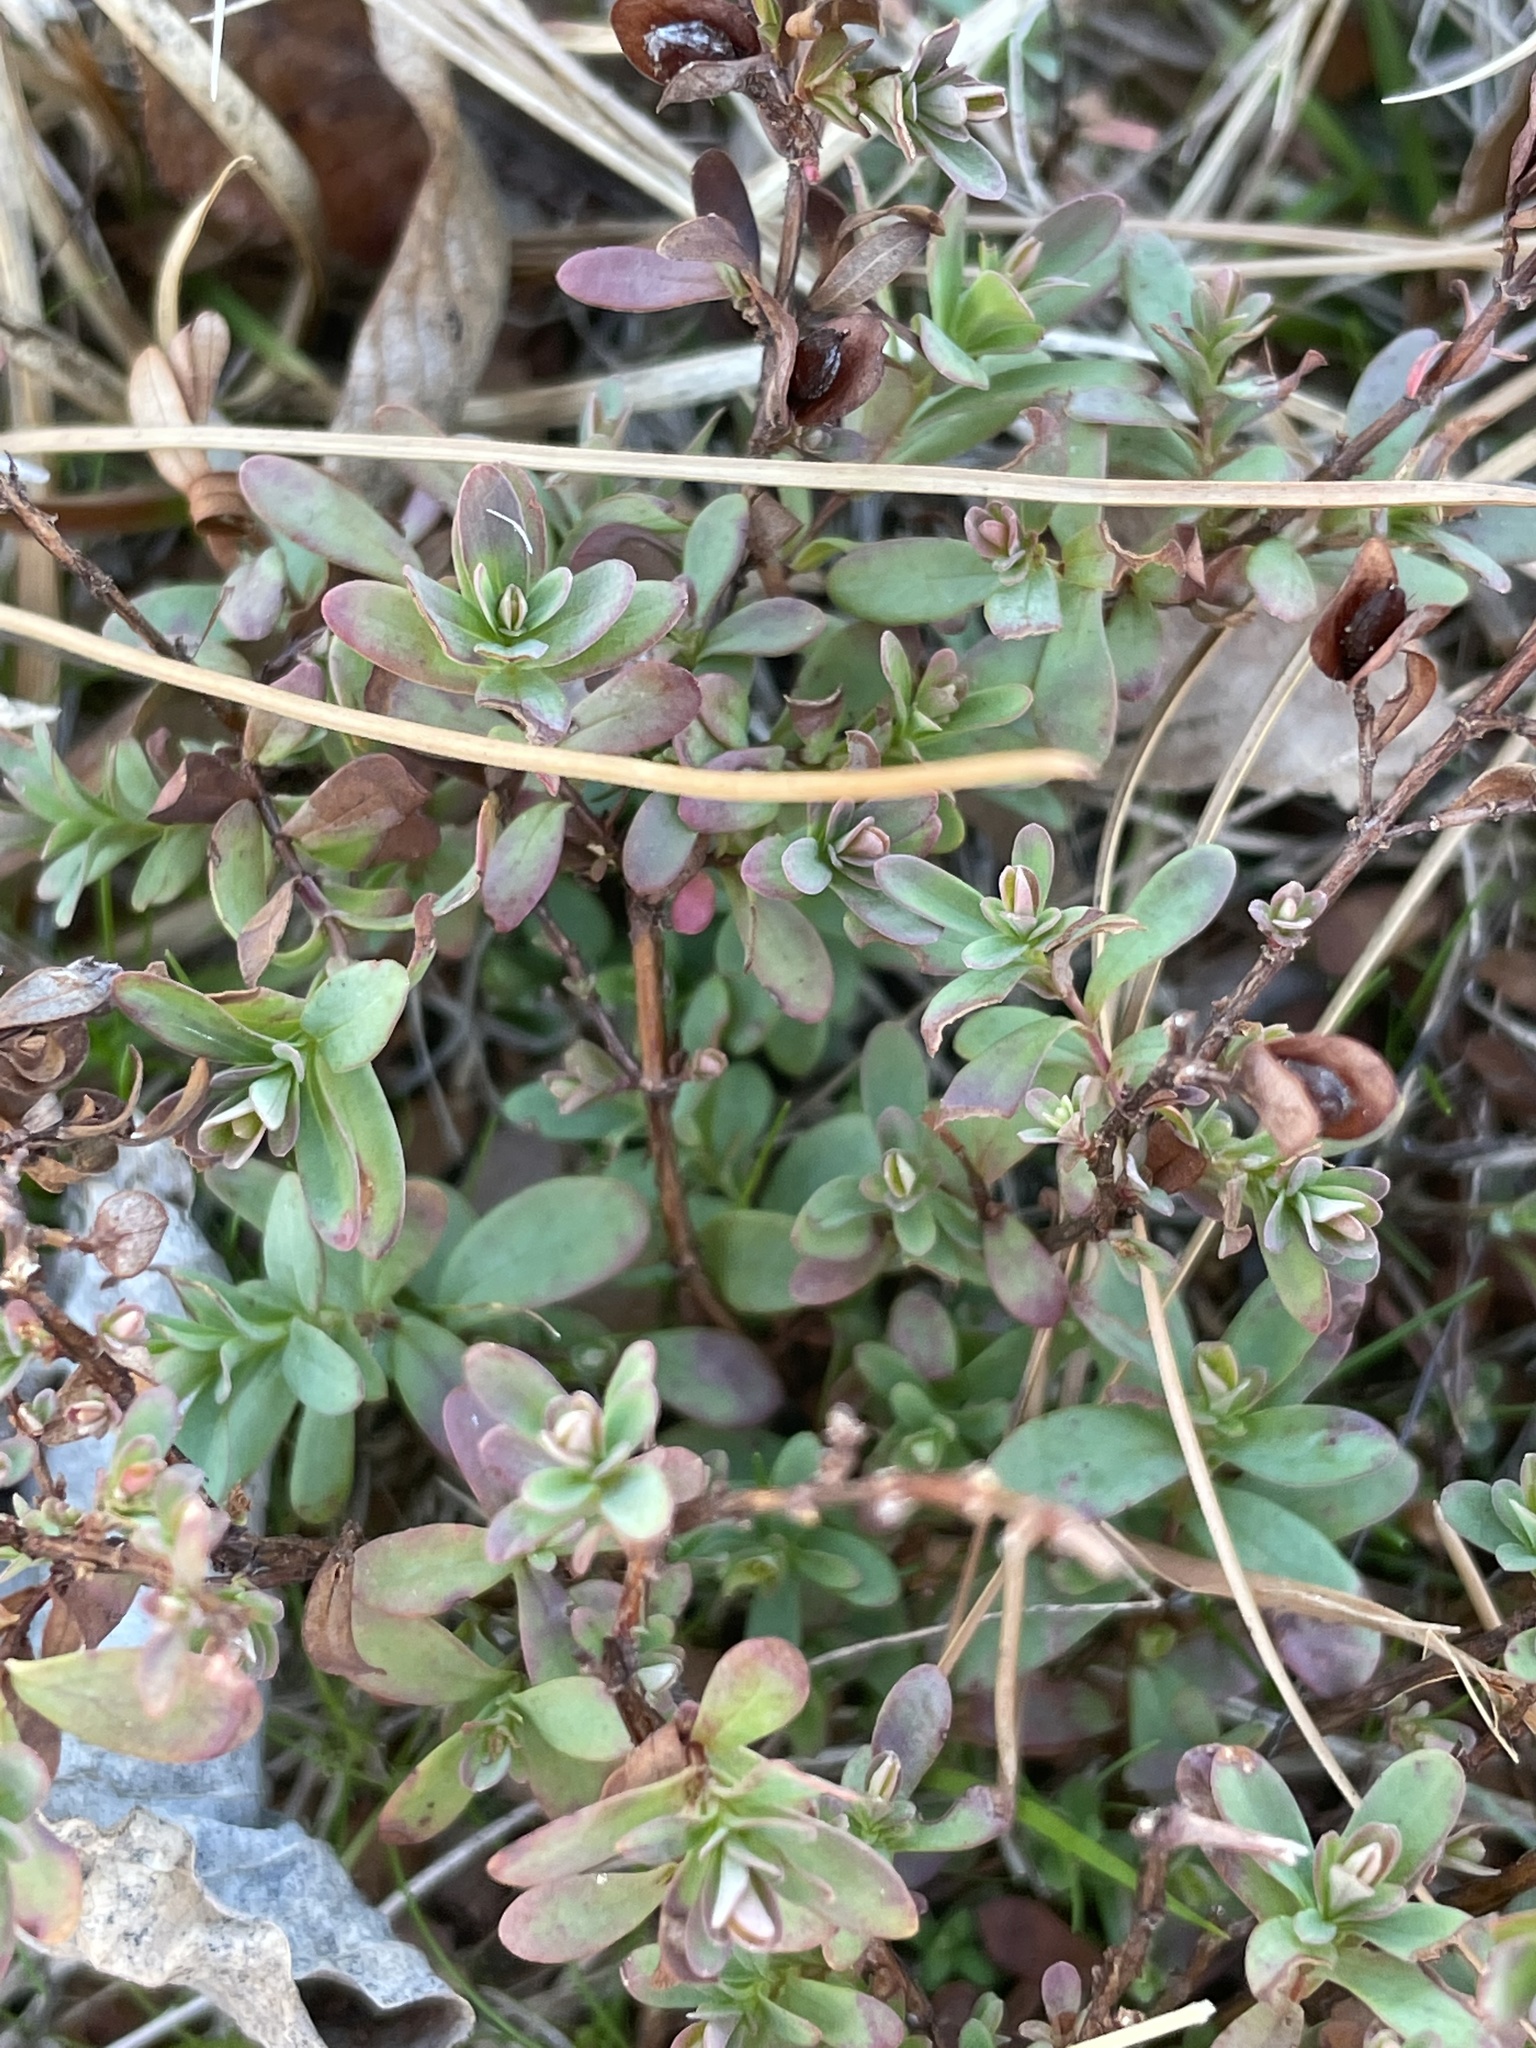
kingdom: Plantae
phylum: Tracheophyta
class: Magnoliopsida
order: Malpighiales
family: Hypericaceae
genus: Hypericum
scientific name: Hypericum hypericoides
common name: St. andrew's cross
